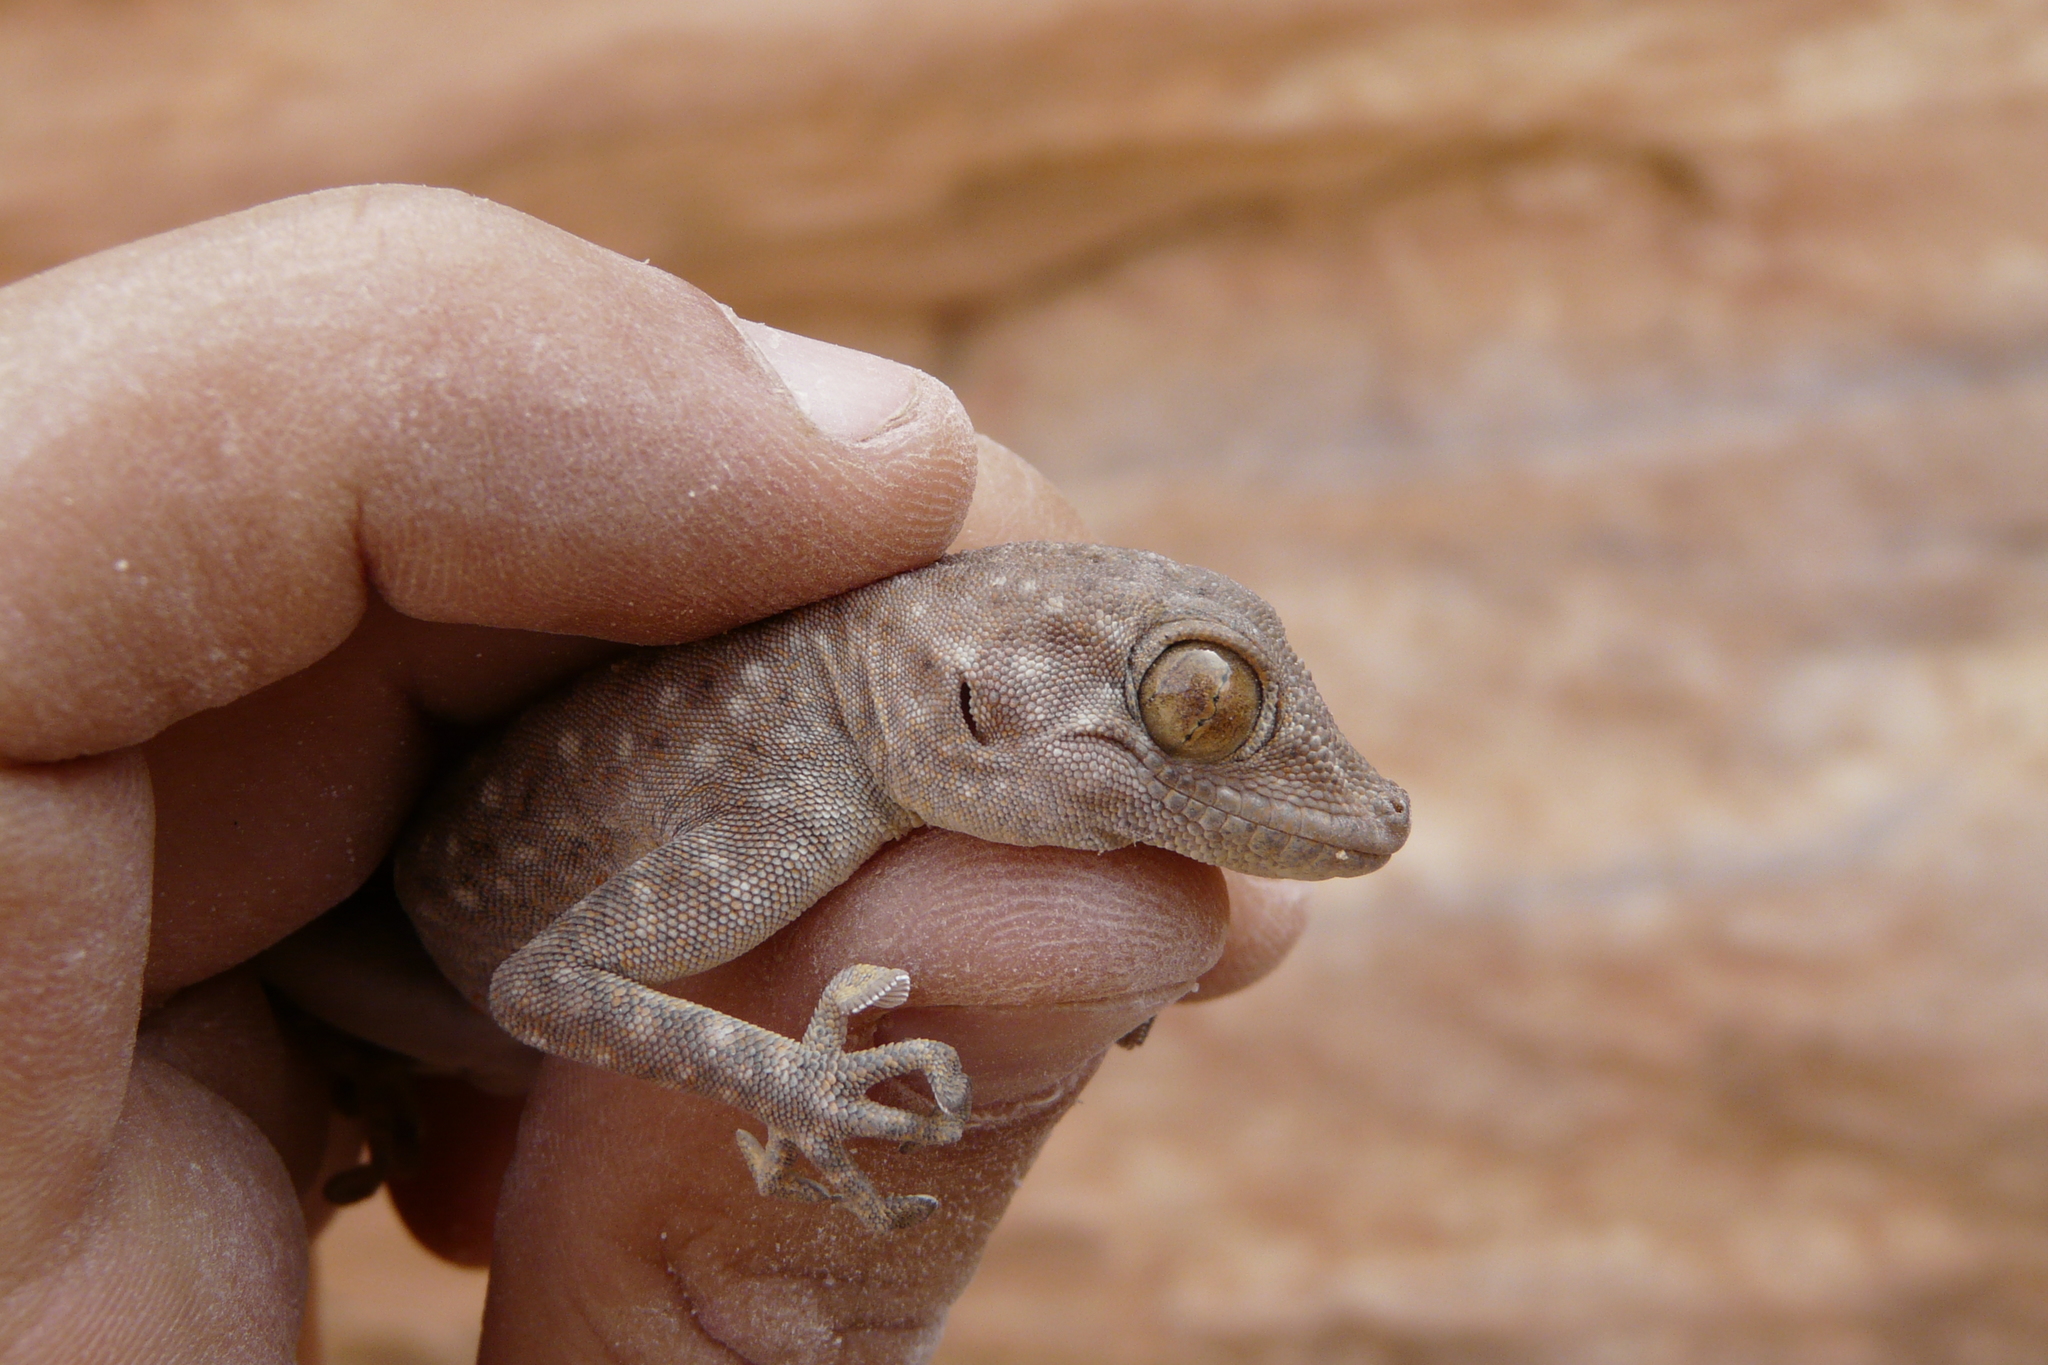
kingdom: Animalia
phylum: Chordata
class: Squamata
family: Phyllodactylidae
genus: Ptyodactylus
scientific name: Ptyodactylus guttatus
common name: Sinai fan-fingered gecko
